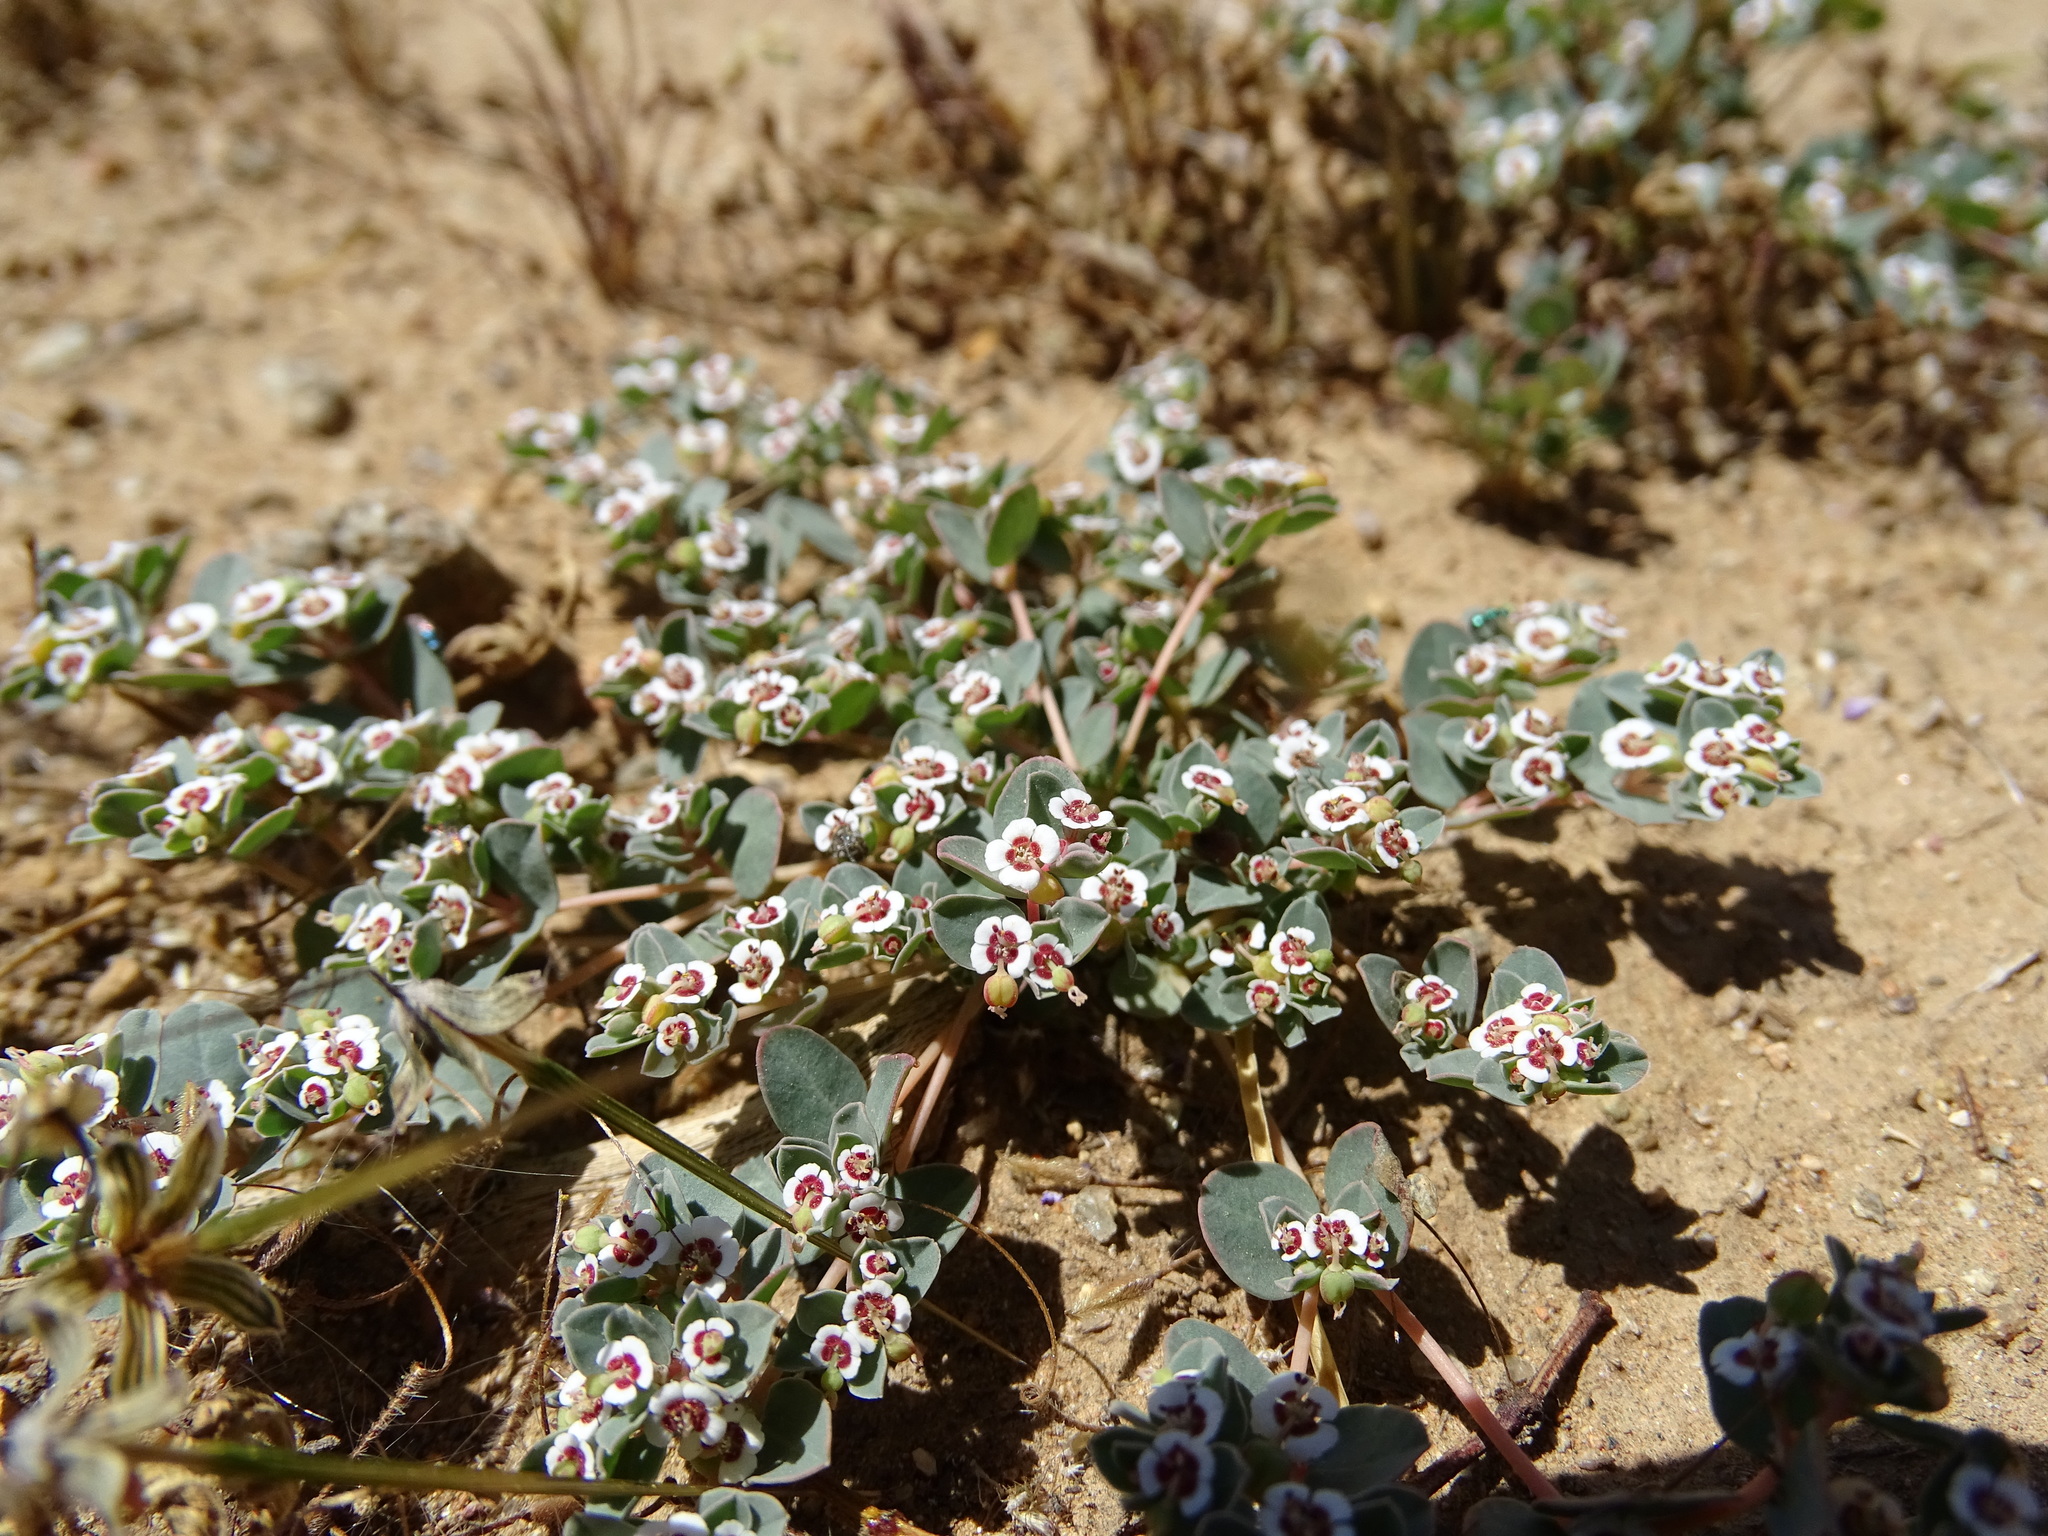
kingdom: Plantae
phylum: Tracheophyta
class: Magnoliopsida
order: Malpighiales
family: Euphorbiaceae
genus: Euphorbia
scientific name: Euphorbia albomarginata
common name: Whitemargin sandmat
